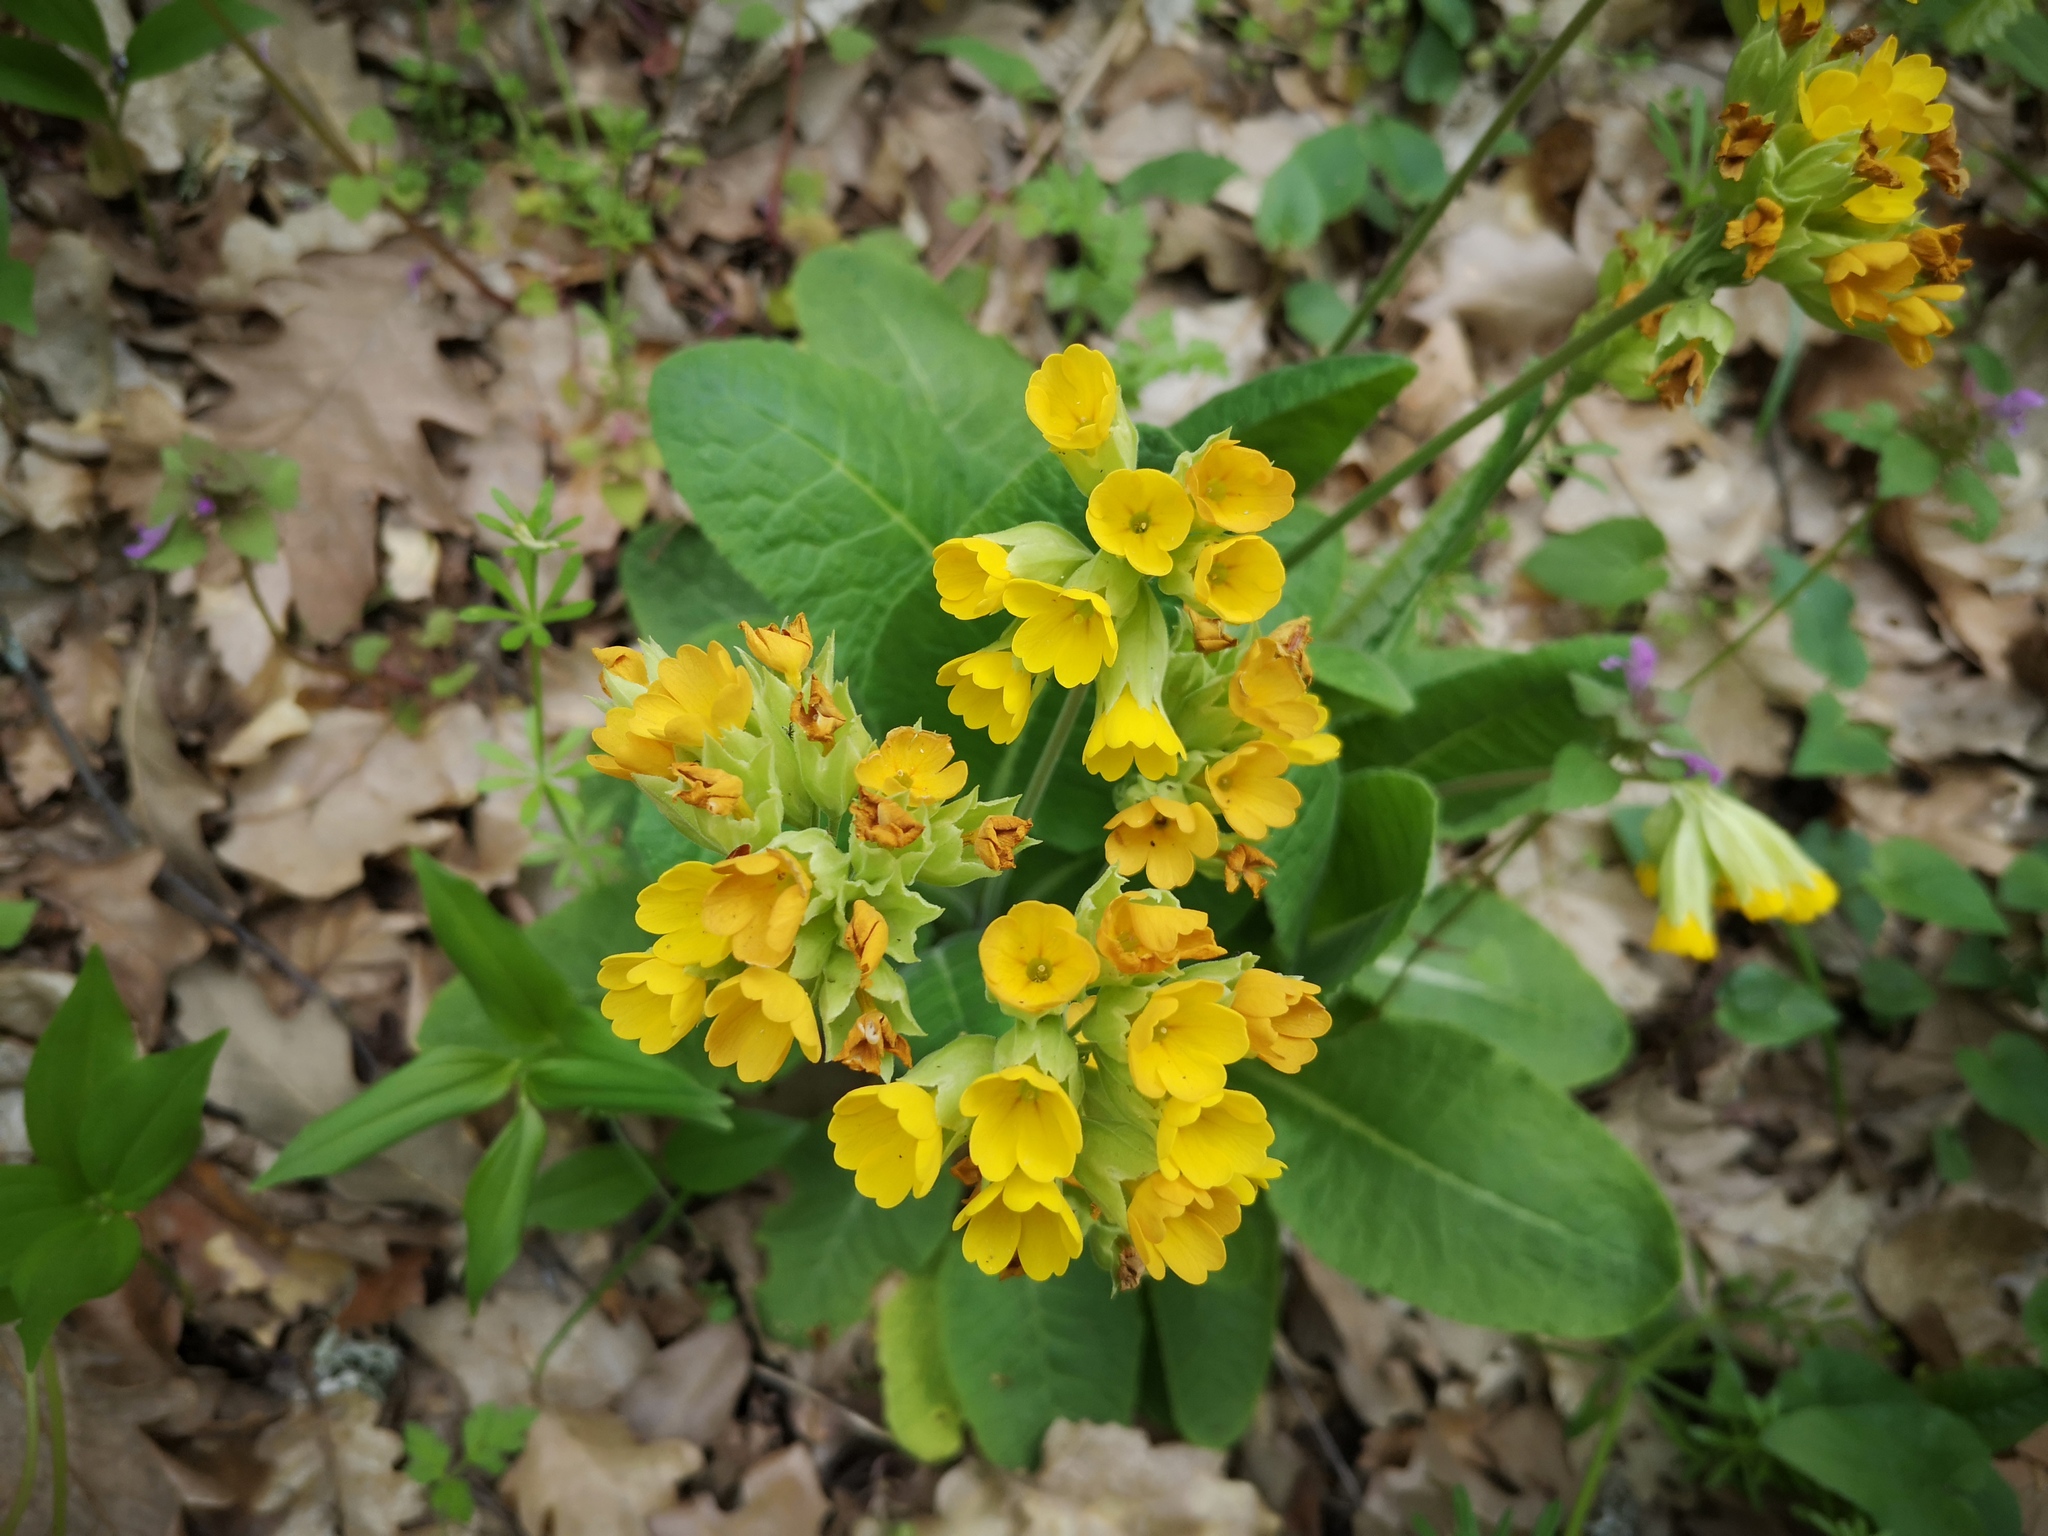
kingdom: Plantae
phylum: Tracheophyta
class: Magnoliopsida
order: Ericales
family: Primulaceae
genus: Primula
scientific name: Primula veris
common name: Cowslip
